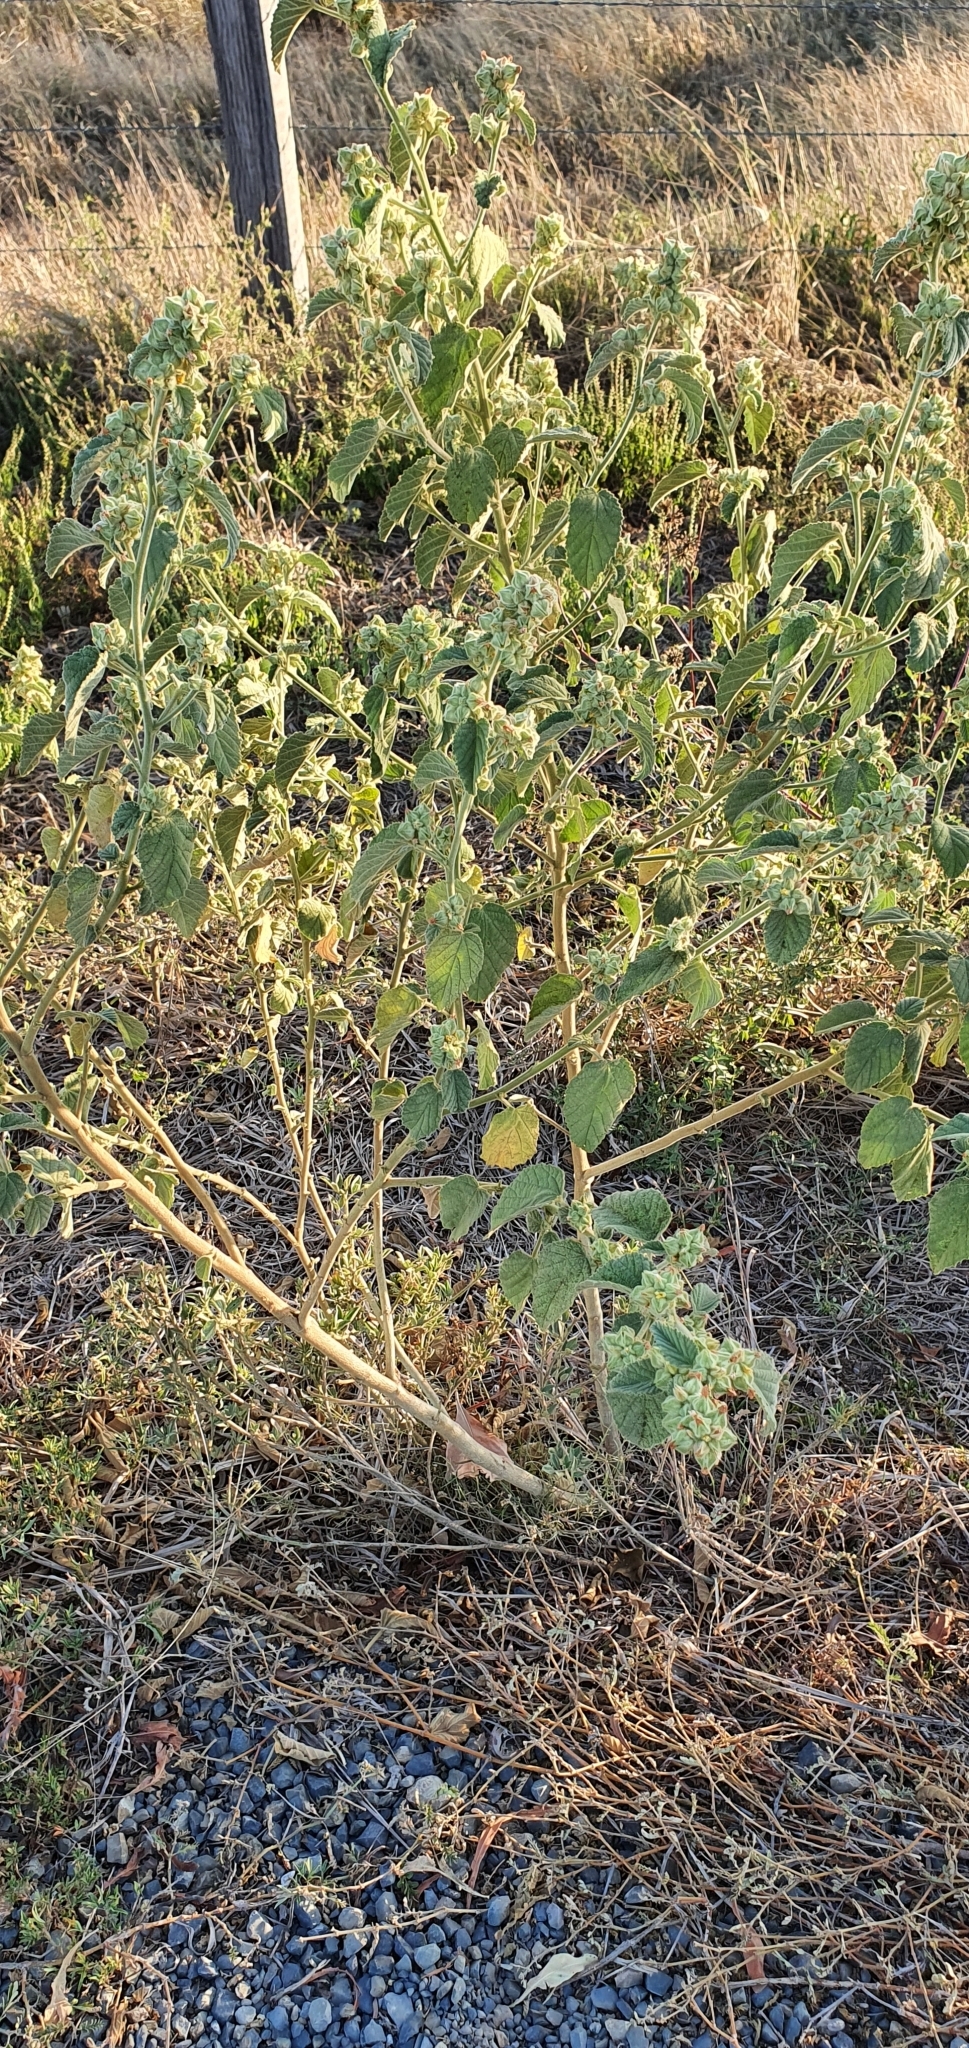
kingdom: Plantae
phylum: Tracheophyta
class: Magnoliopsida
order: Malvales
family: Malvaceae
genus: Sida
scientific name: Sida cordifolia
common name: Ilima
